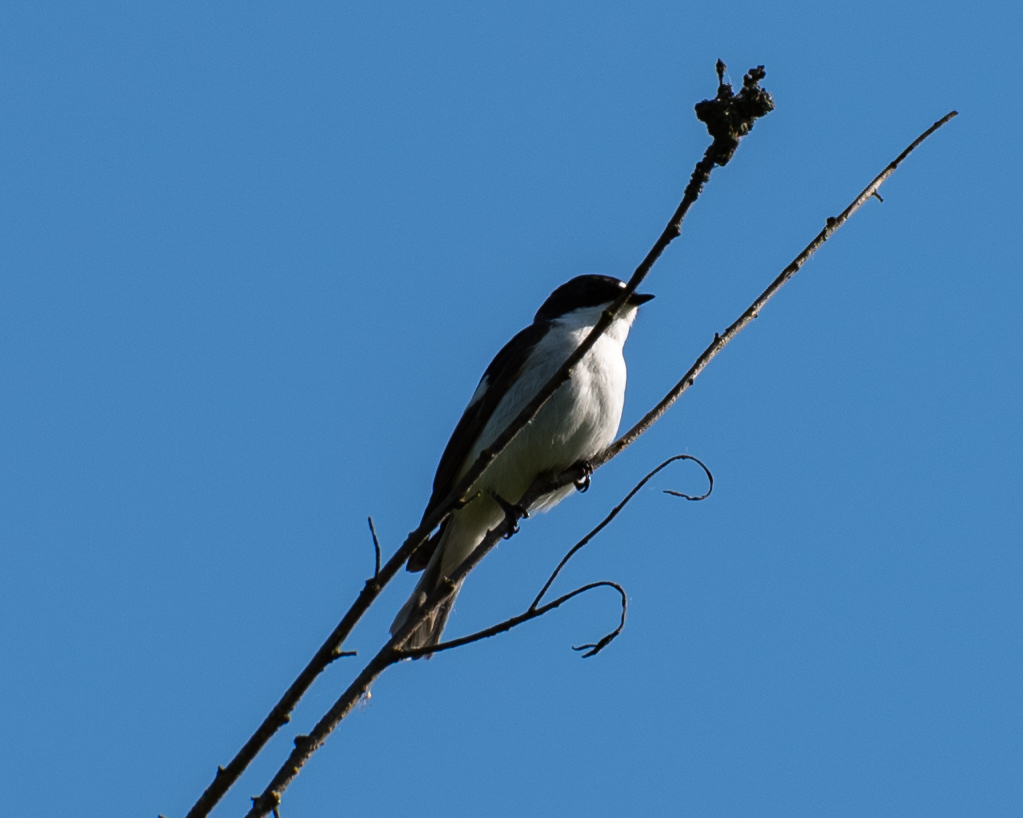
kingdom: Animalia
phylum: Chordata
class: Aves
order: Passeriformes
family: Muscicapidae
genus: Ficedula
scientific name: Ficedula hypoleuca
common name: European pied flycatcher
